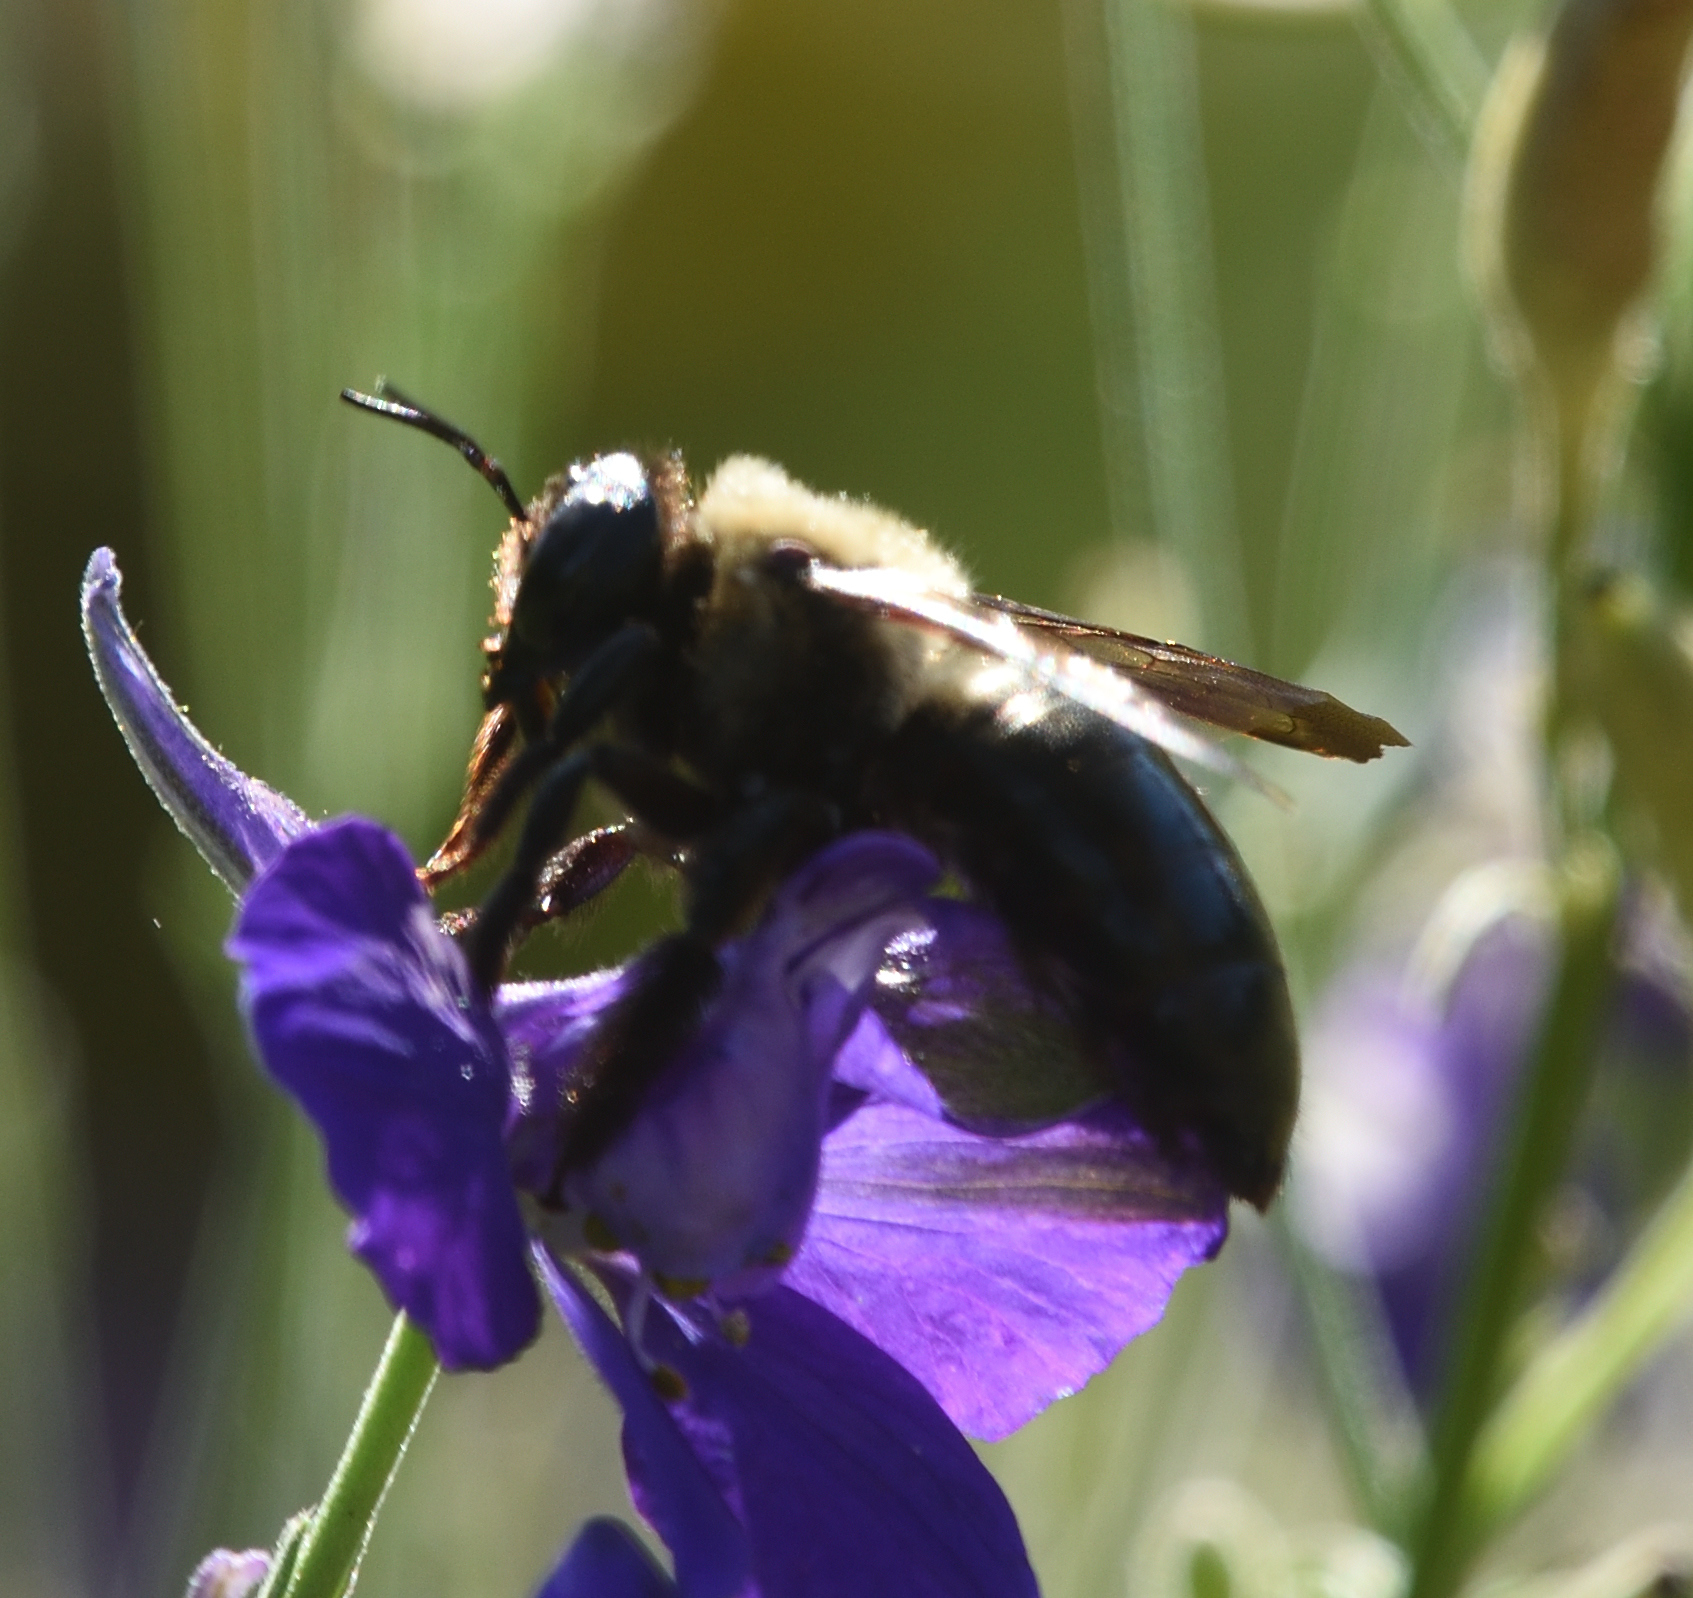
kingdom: Animalia
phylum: Arthropoda
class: Insecta
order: Hymenoptera
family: Apidae
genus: Xylocopa
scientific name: Xylocopa virginica
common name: Carpenter bee
